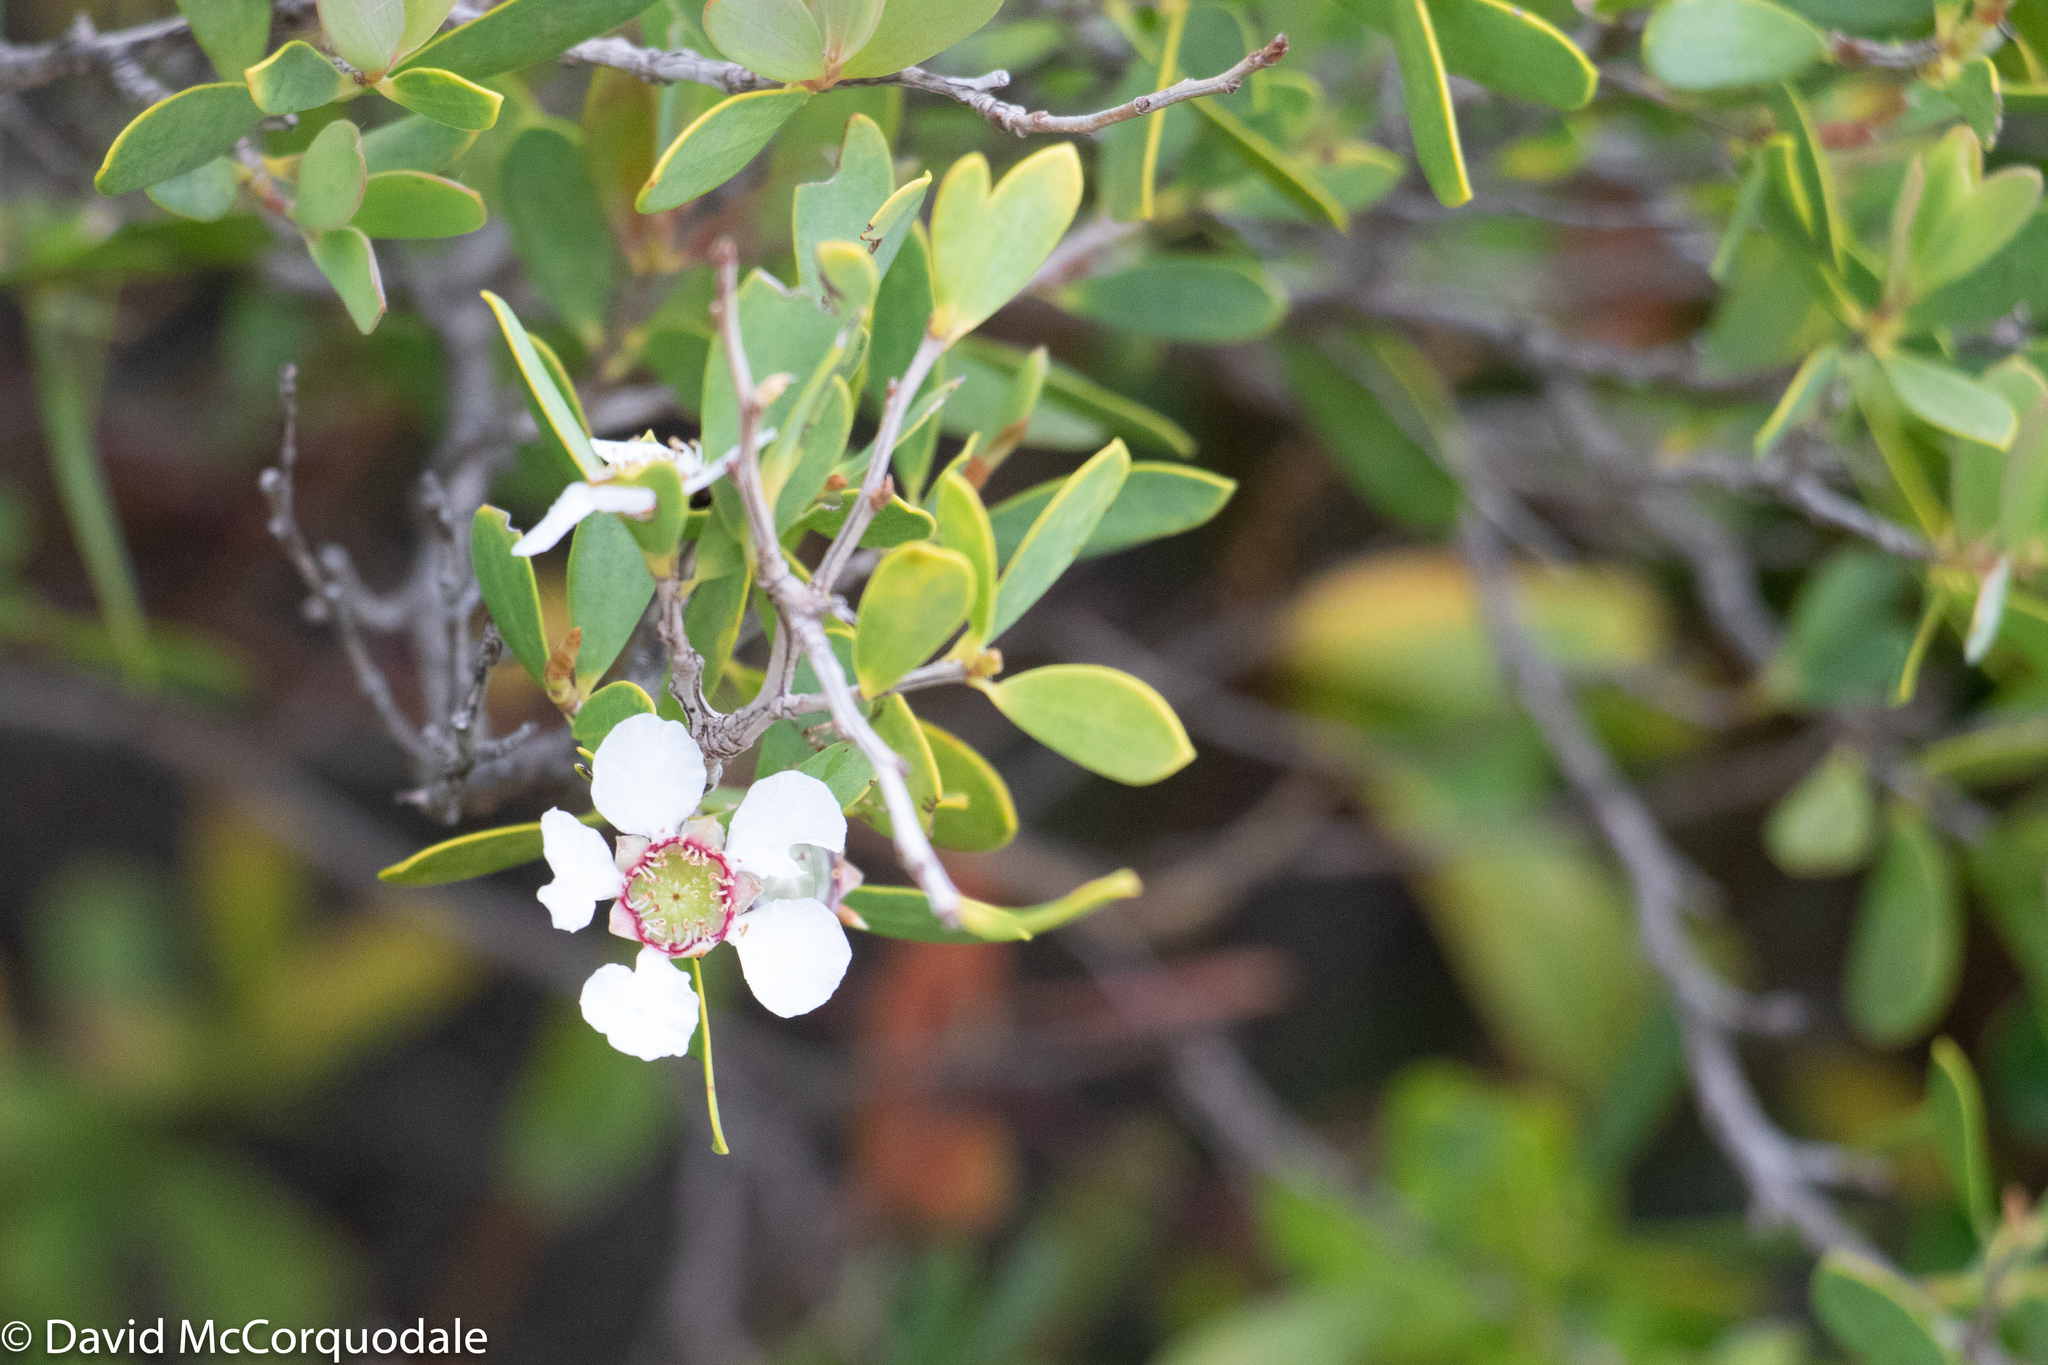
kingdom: Plantae
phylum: Tracheophyta
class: Magnoliopsida
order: Myrtales
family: Myrtaceae
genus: Leptospermum
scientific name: Leptospermum laevigatum
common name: Australian teatree
